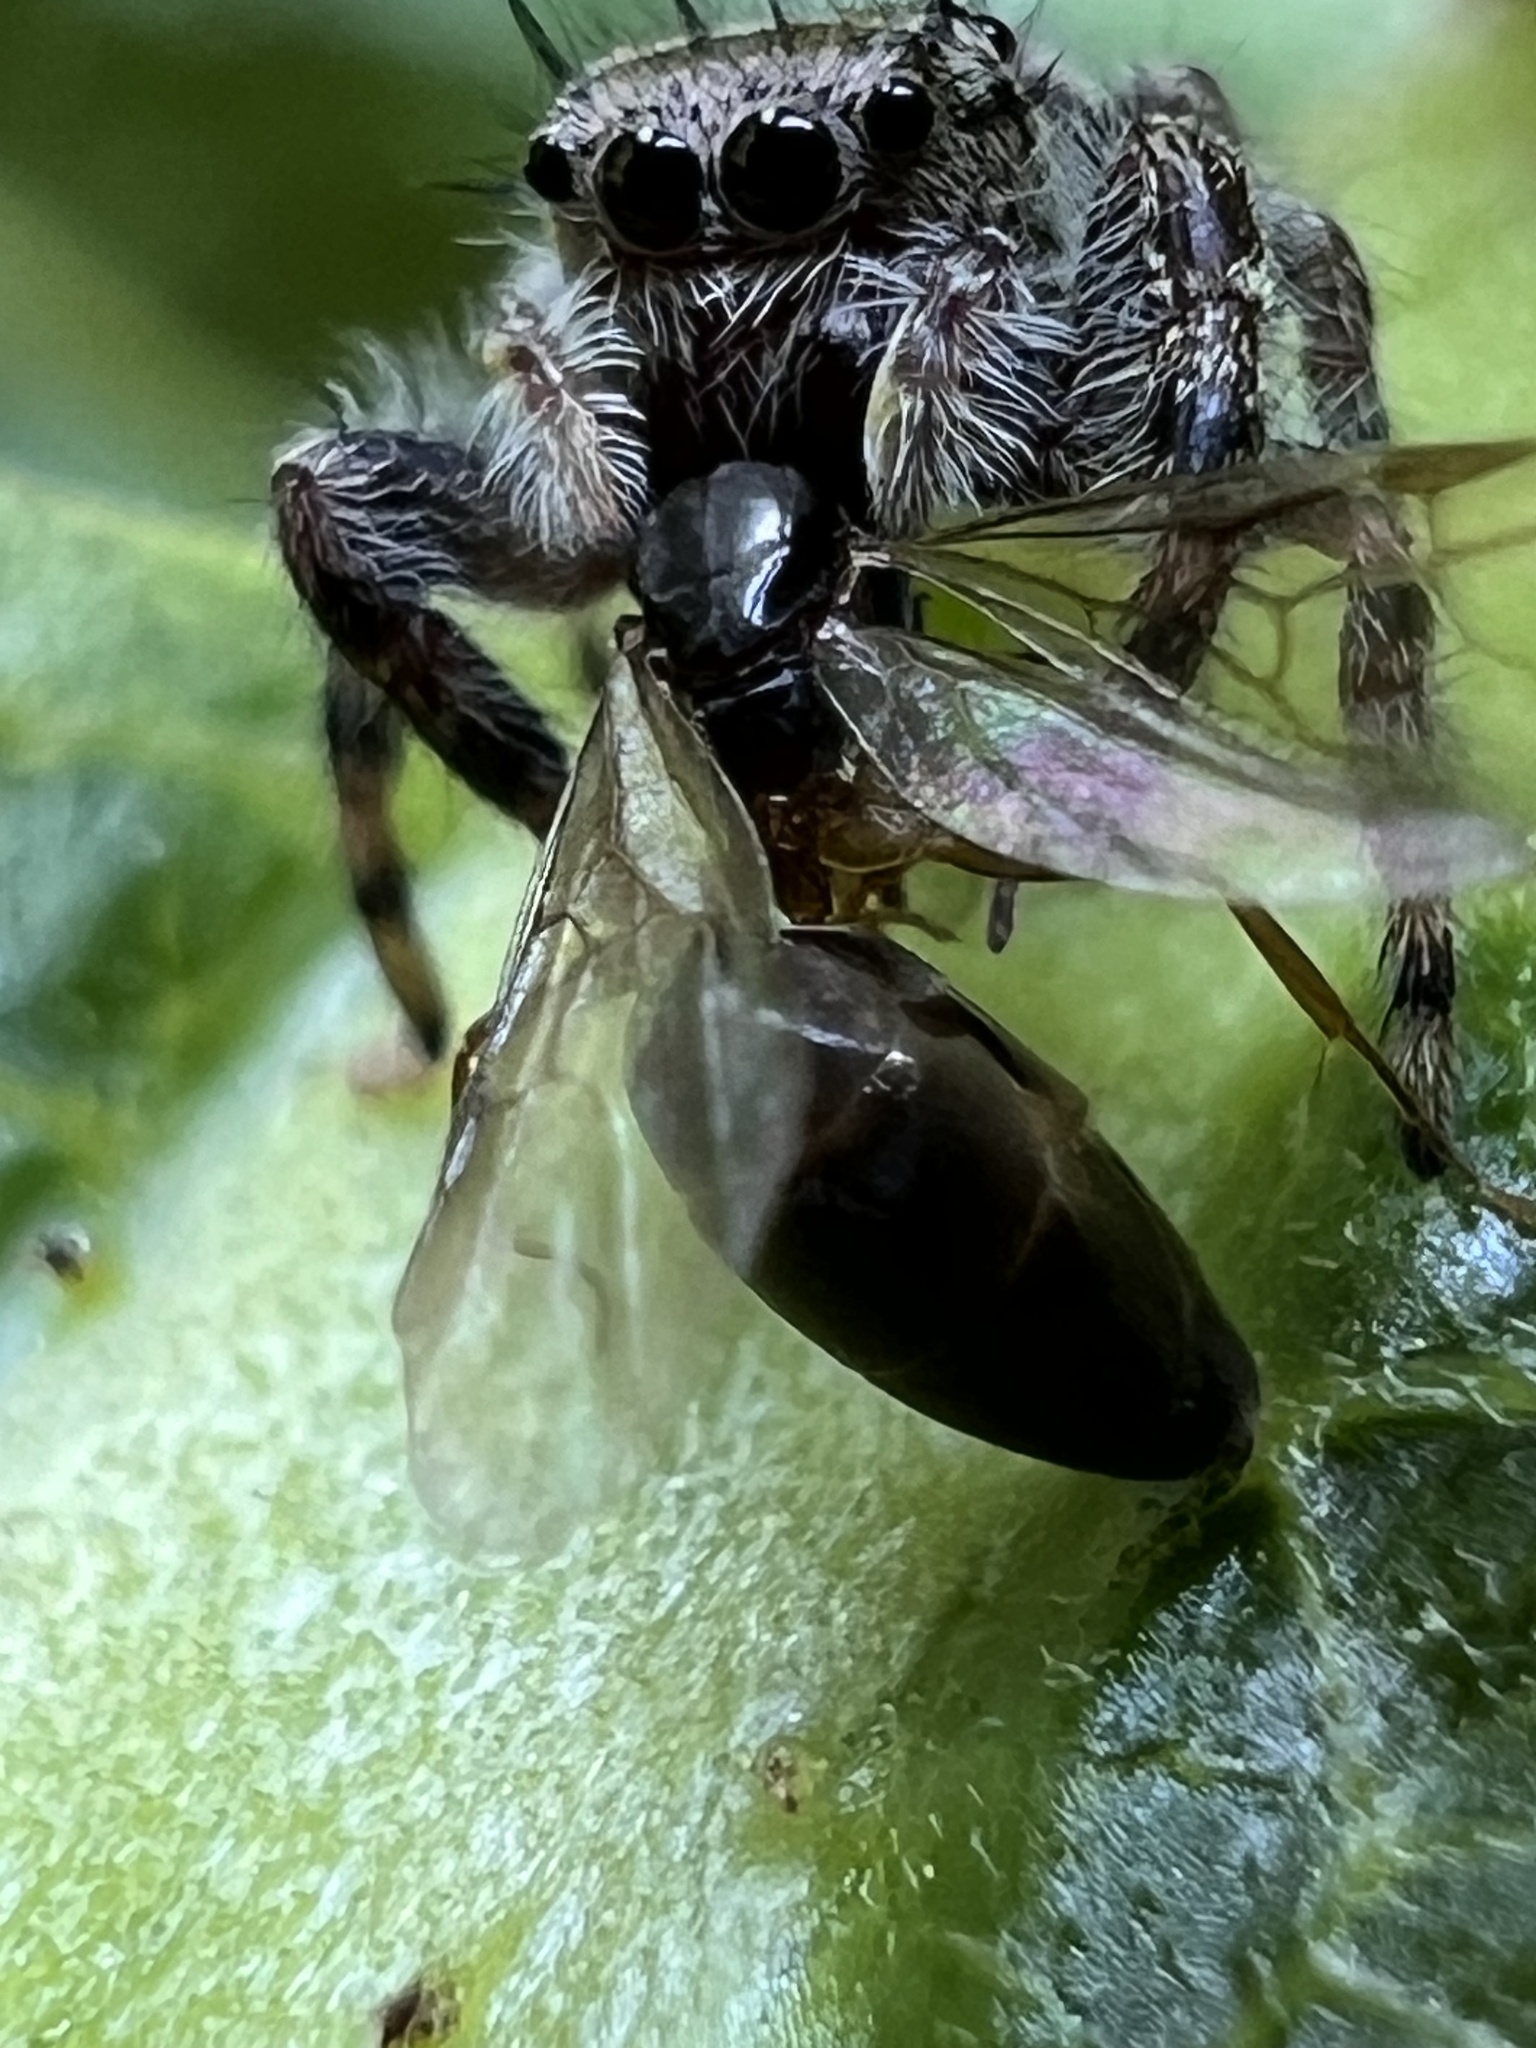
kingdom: Animalia
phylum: Arthropoda
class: Arachnida
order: Araneae
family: Salticidae
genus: Phidippus
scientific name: Phidippus putnami
